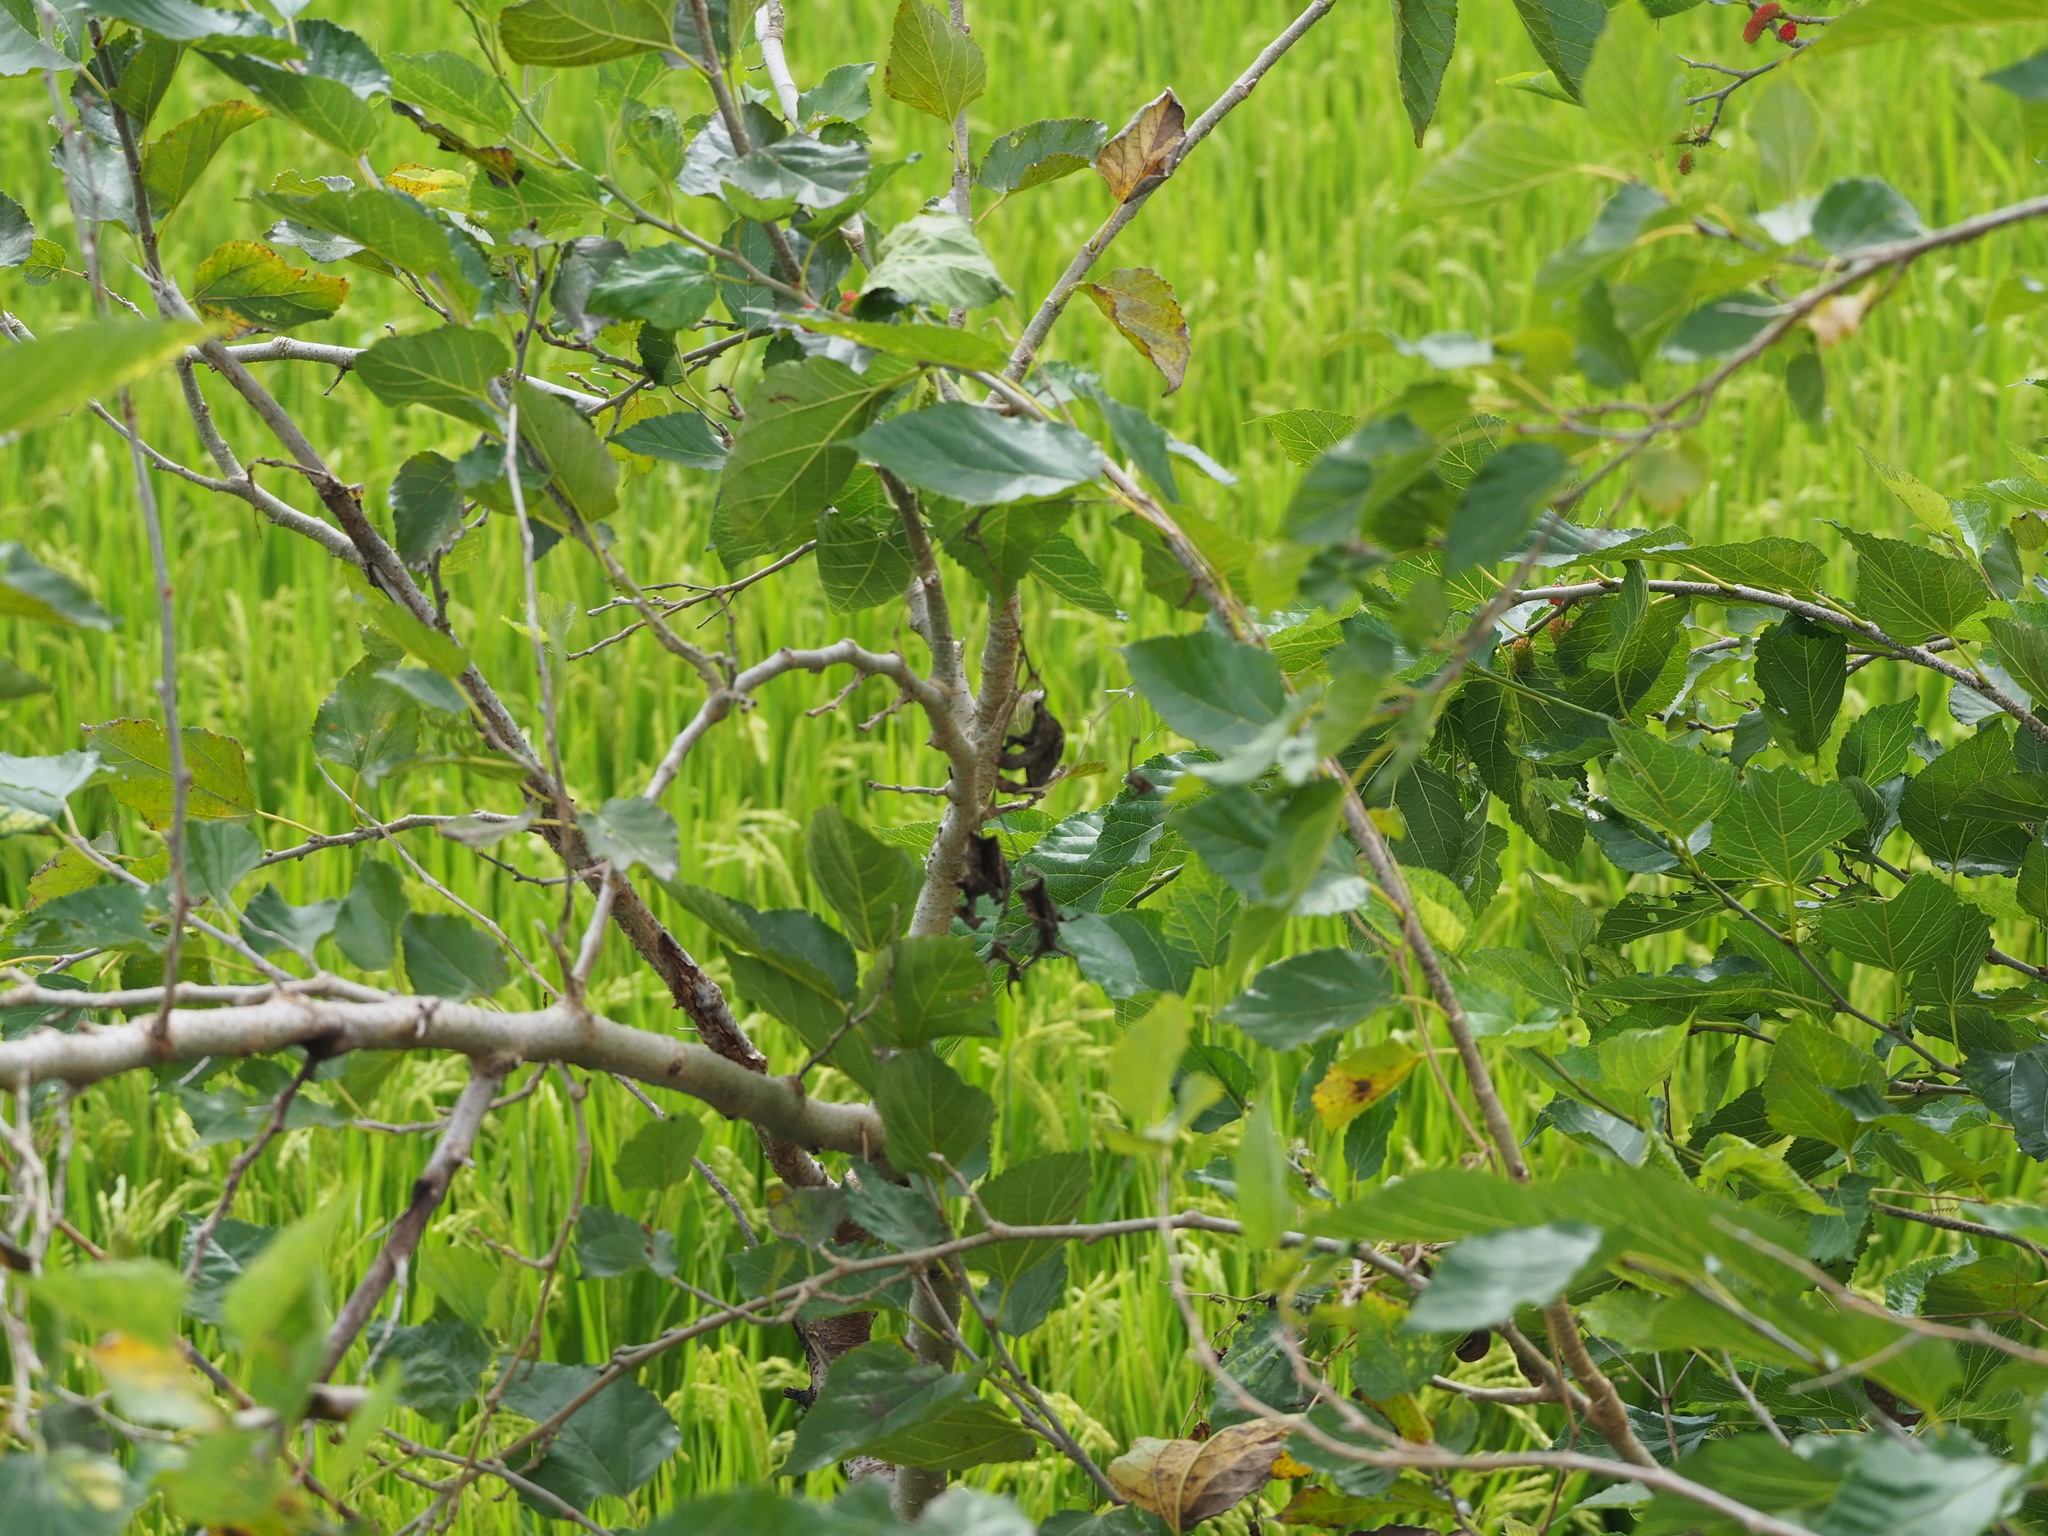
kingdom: Plantae
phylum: Tracheophyta
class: Magnoliopsida
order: Rosales
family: Moraceae
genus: Morus
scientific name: Morus indica
